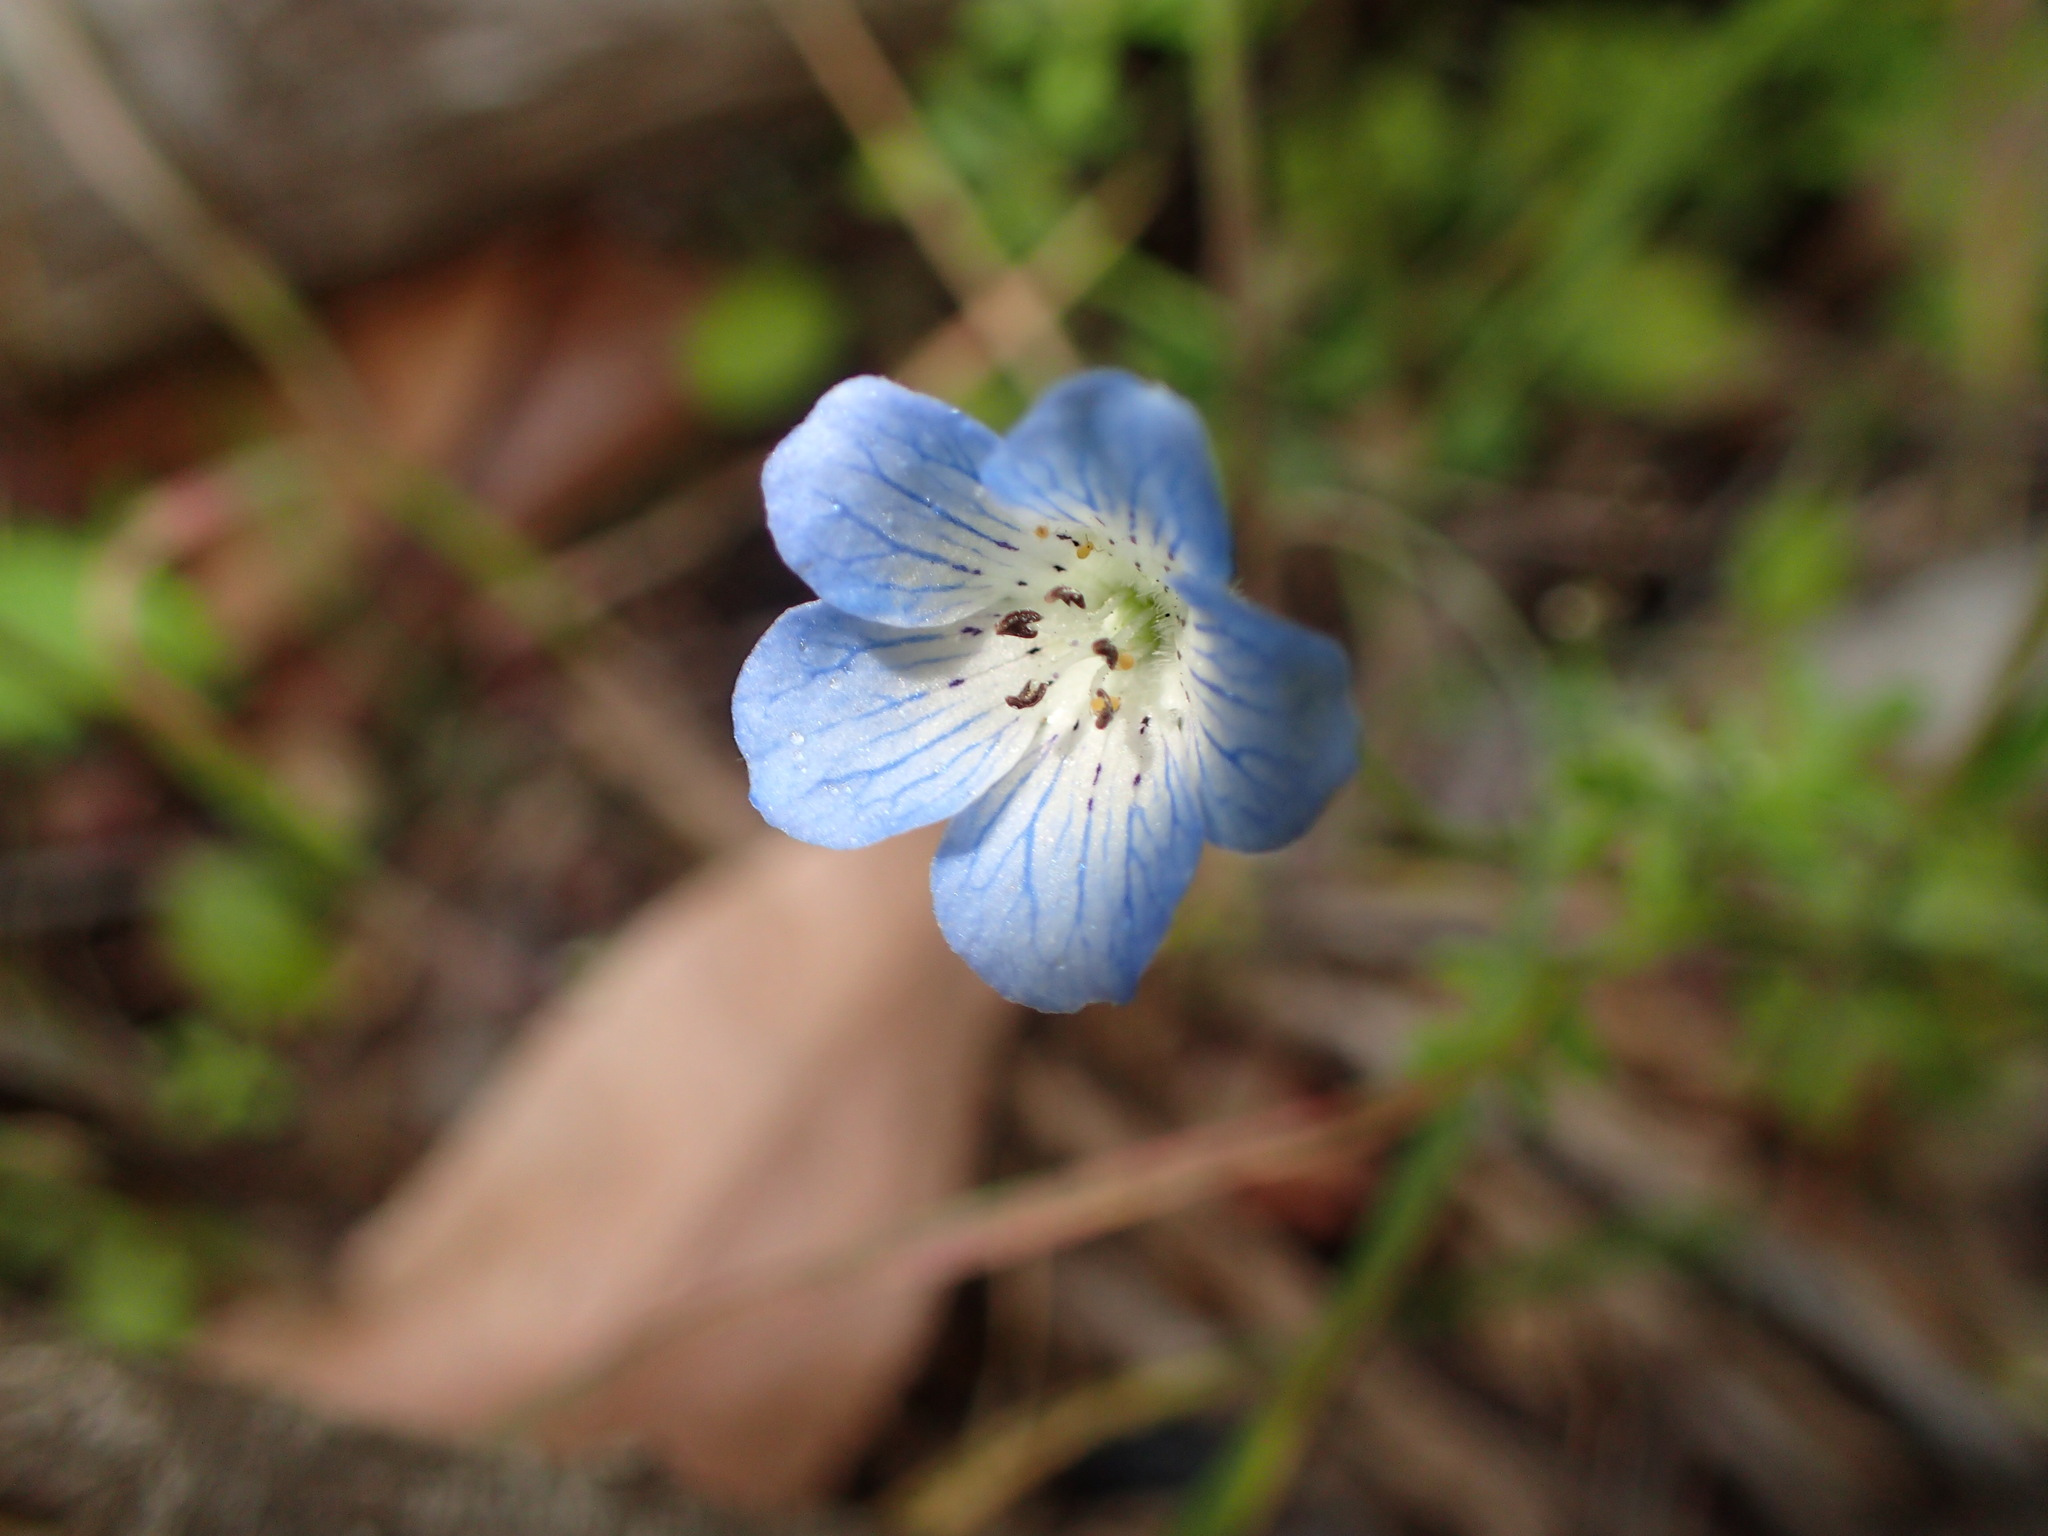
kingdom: Plantae
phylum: Tracheophyta
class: Magnoliopsida
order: Boraginales
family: Hydrophyllaceae
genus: Nemophila
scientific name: Nemophila menziesii
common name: Baby's-blue-eyes
